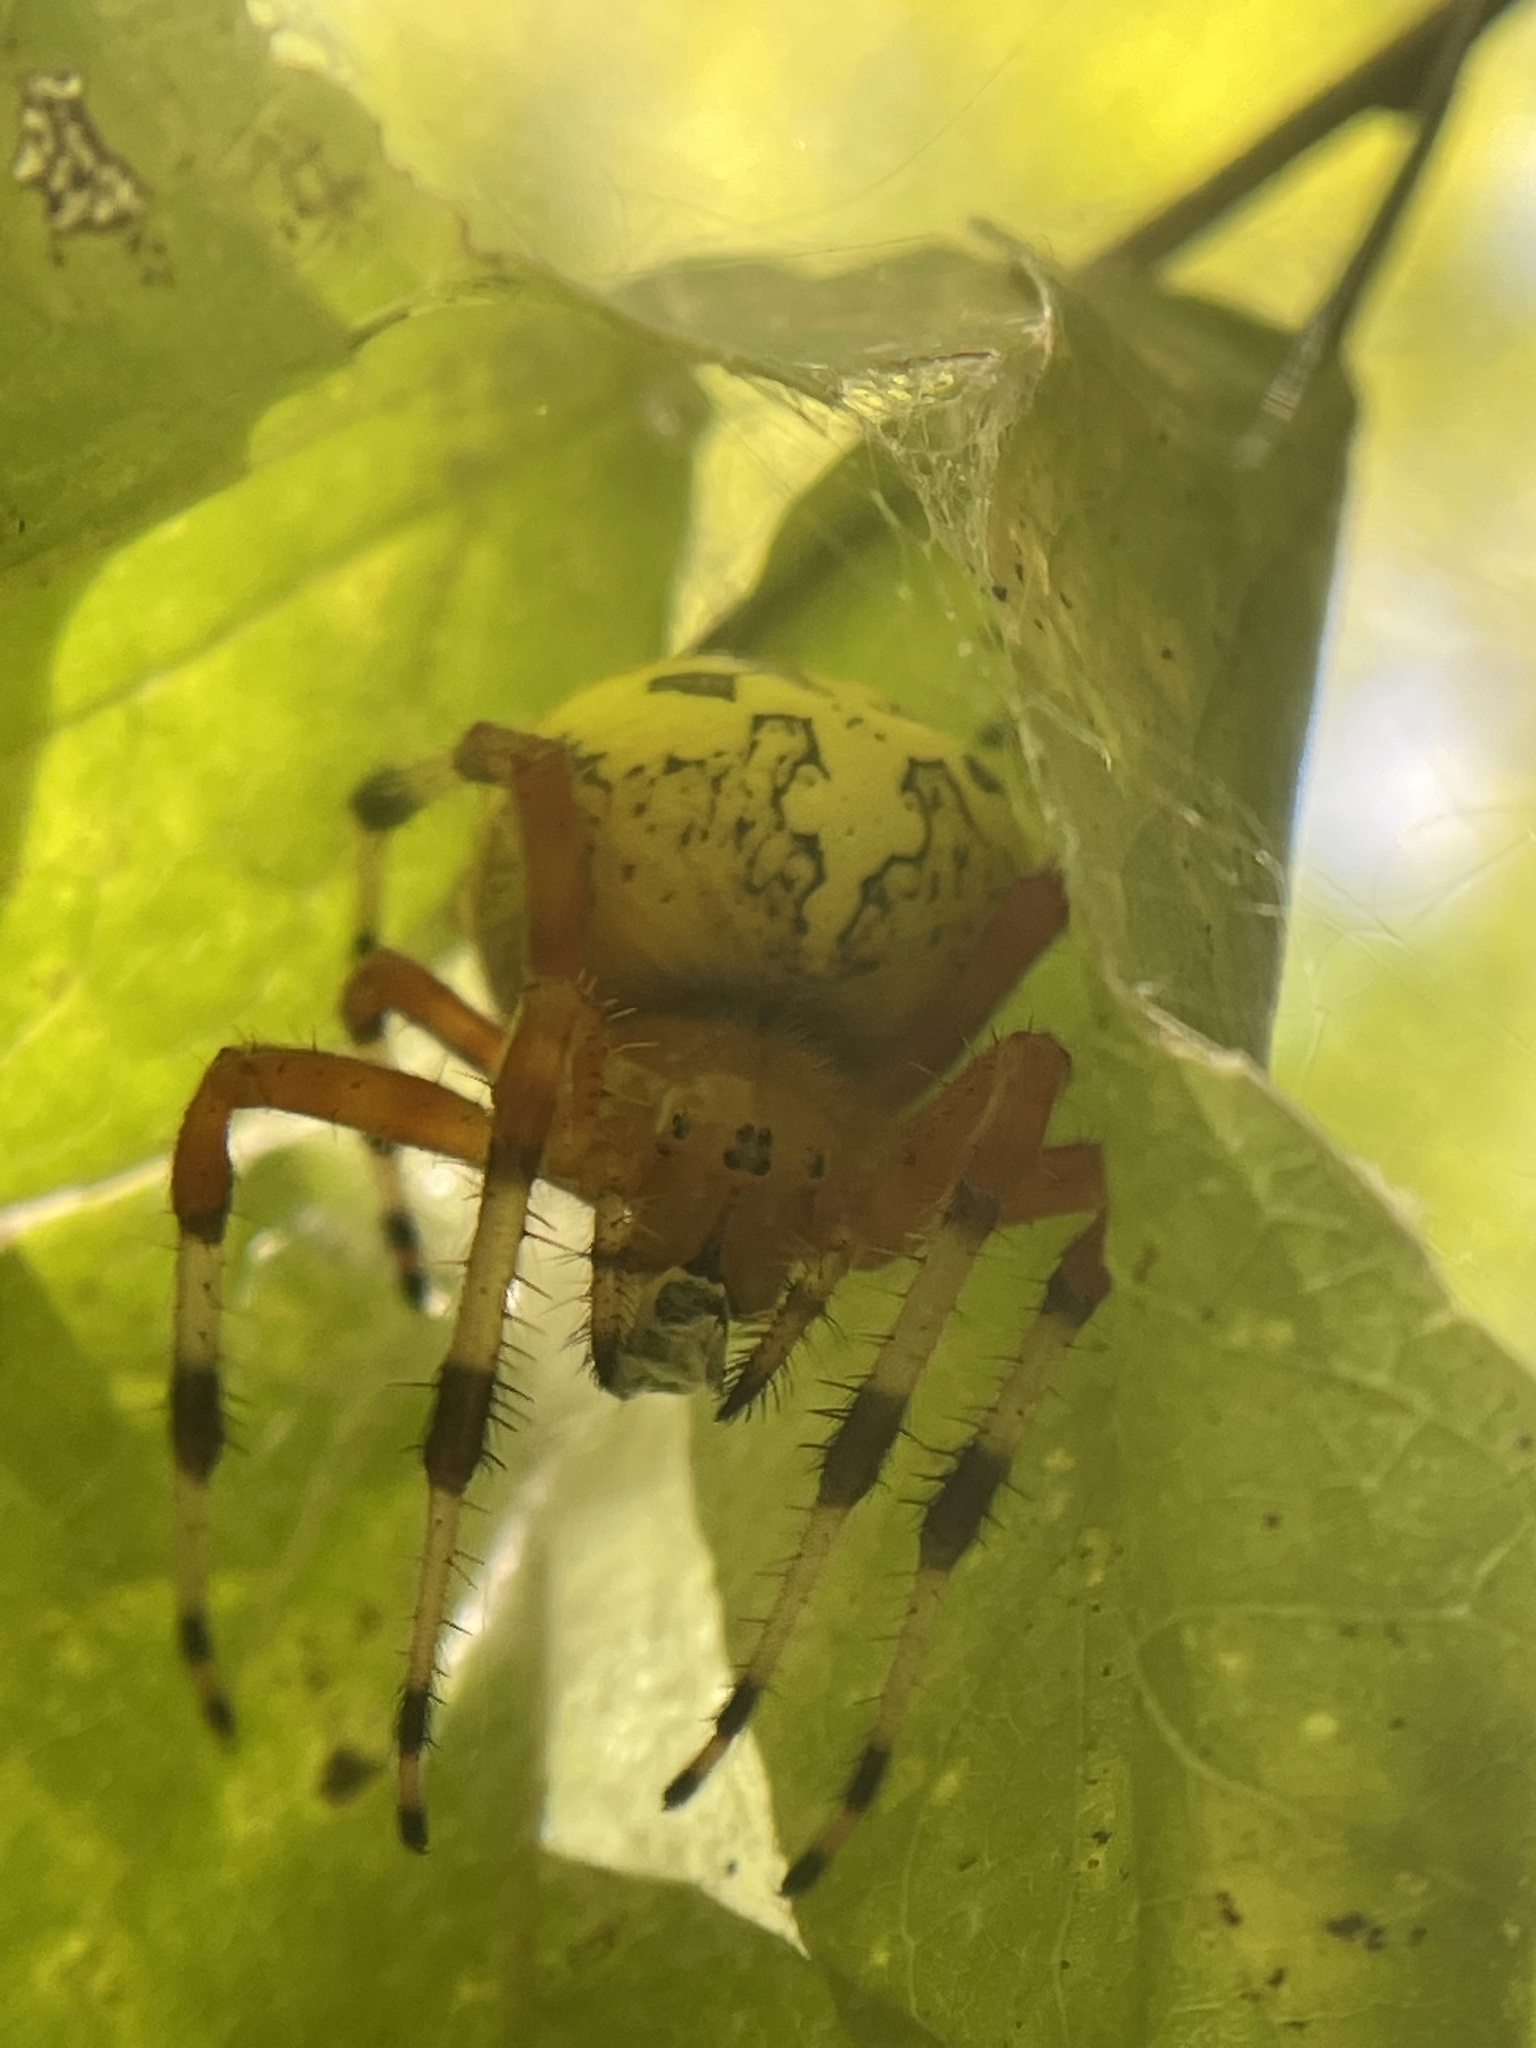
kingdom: Animalia
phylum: Arthropoda
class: Arachnida
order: Araneae
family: Araneidae
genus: Araneus
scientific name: Araneus marmoreus
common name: Marbled orbweaver
